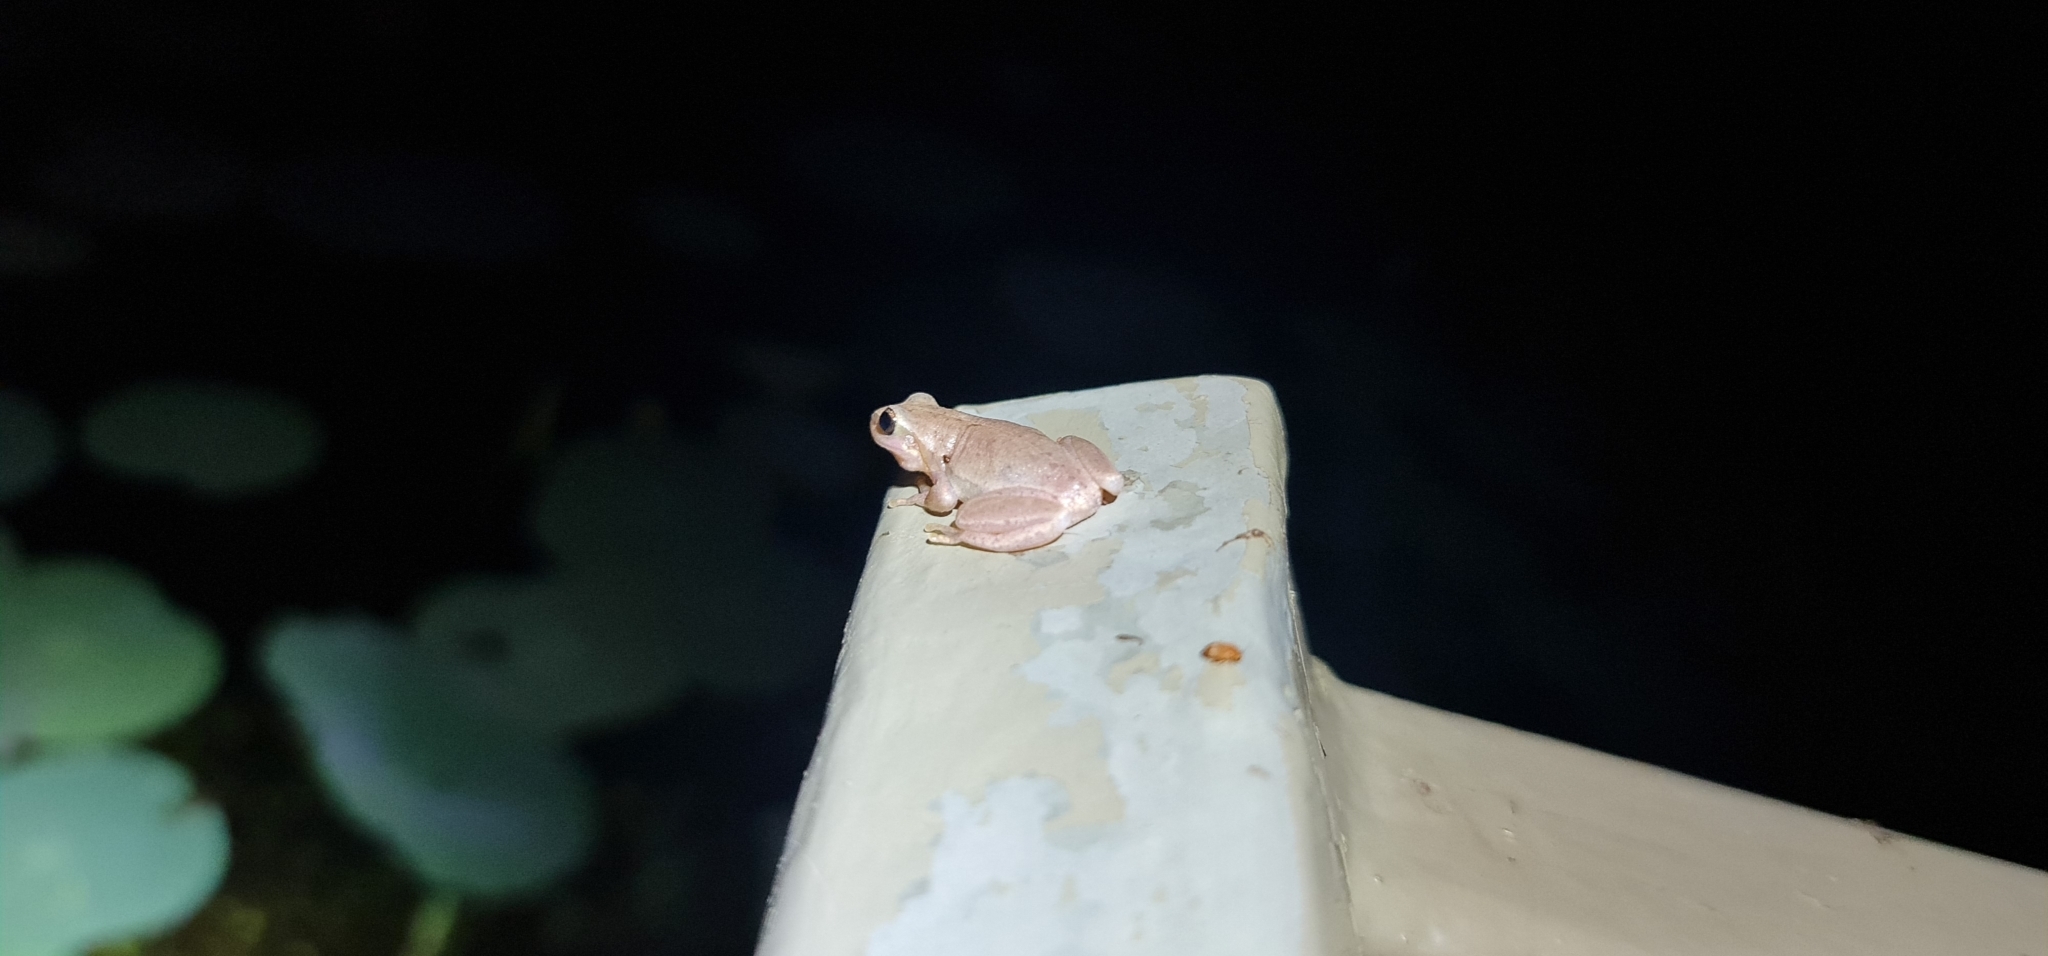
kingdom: Animalia
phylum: Chordata
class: Amphibia
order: Anura
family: Pelodryadidae
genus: Litoria
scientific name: Litoria rubella
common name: Desert tree frog
